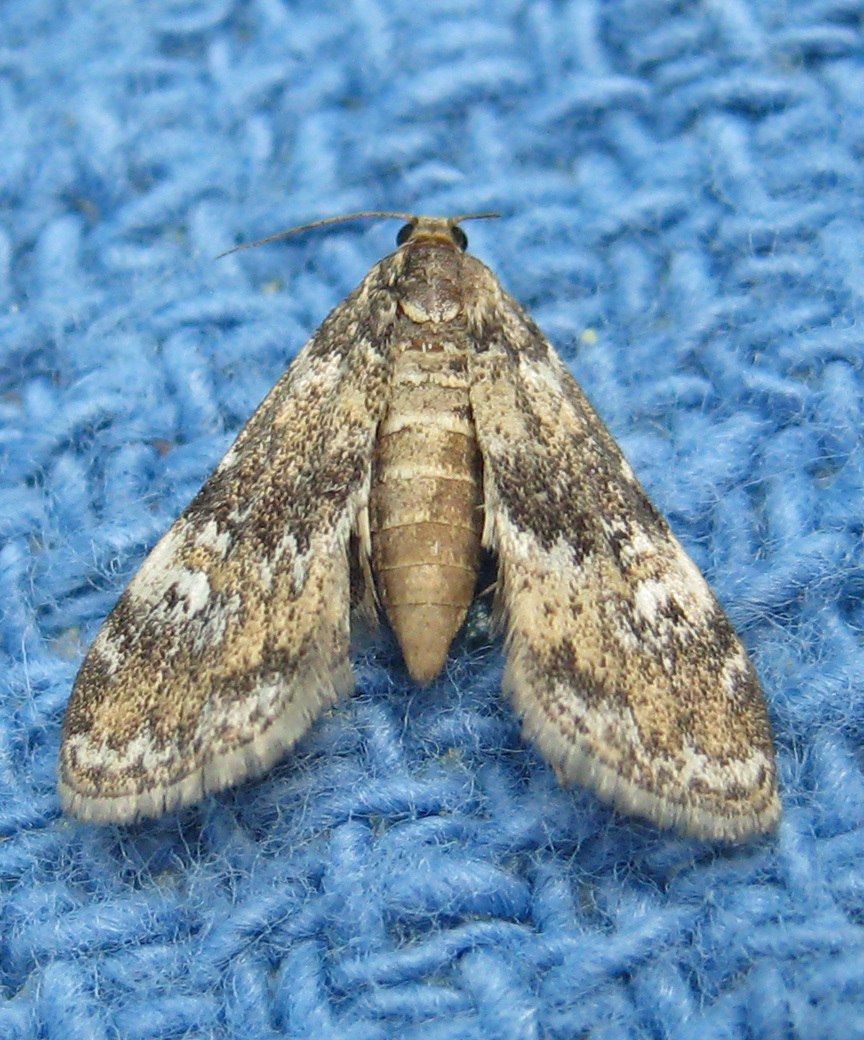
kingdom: Animalia
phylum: Arthropoda
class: Insecta
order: Lepidoptera
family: Crambidae
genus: Elophila
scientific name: Elophila obliteralis
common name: Waterlily leafcutter moth
